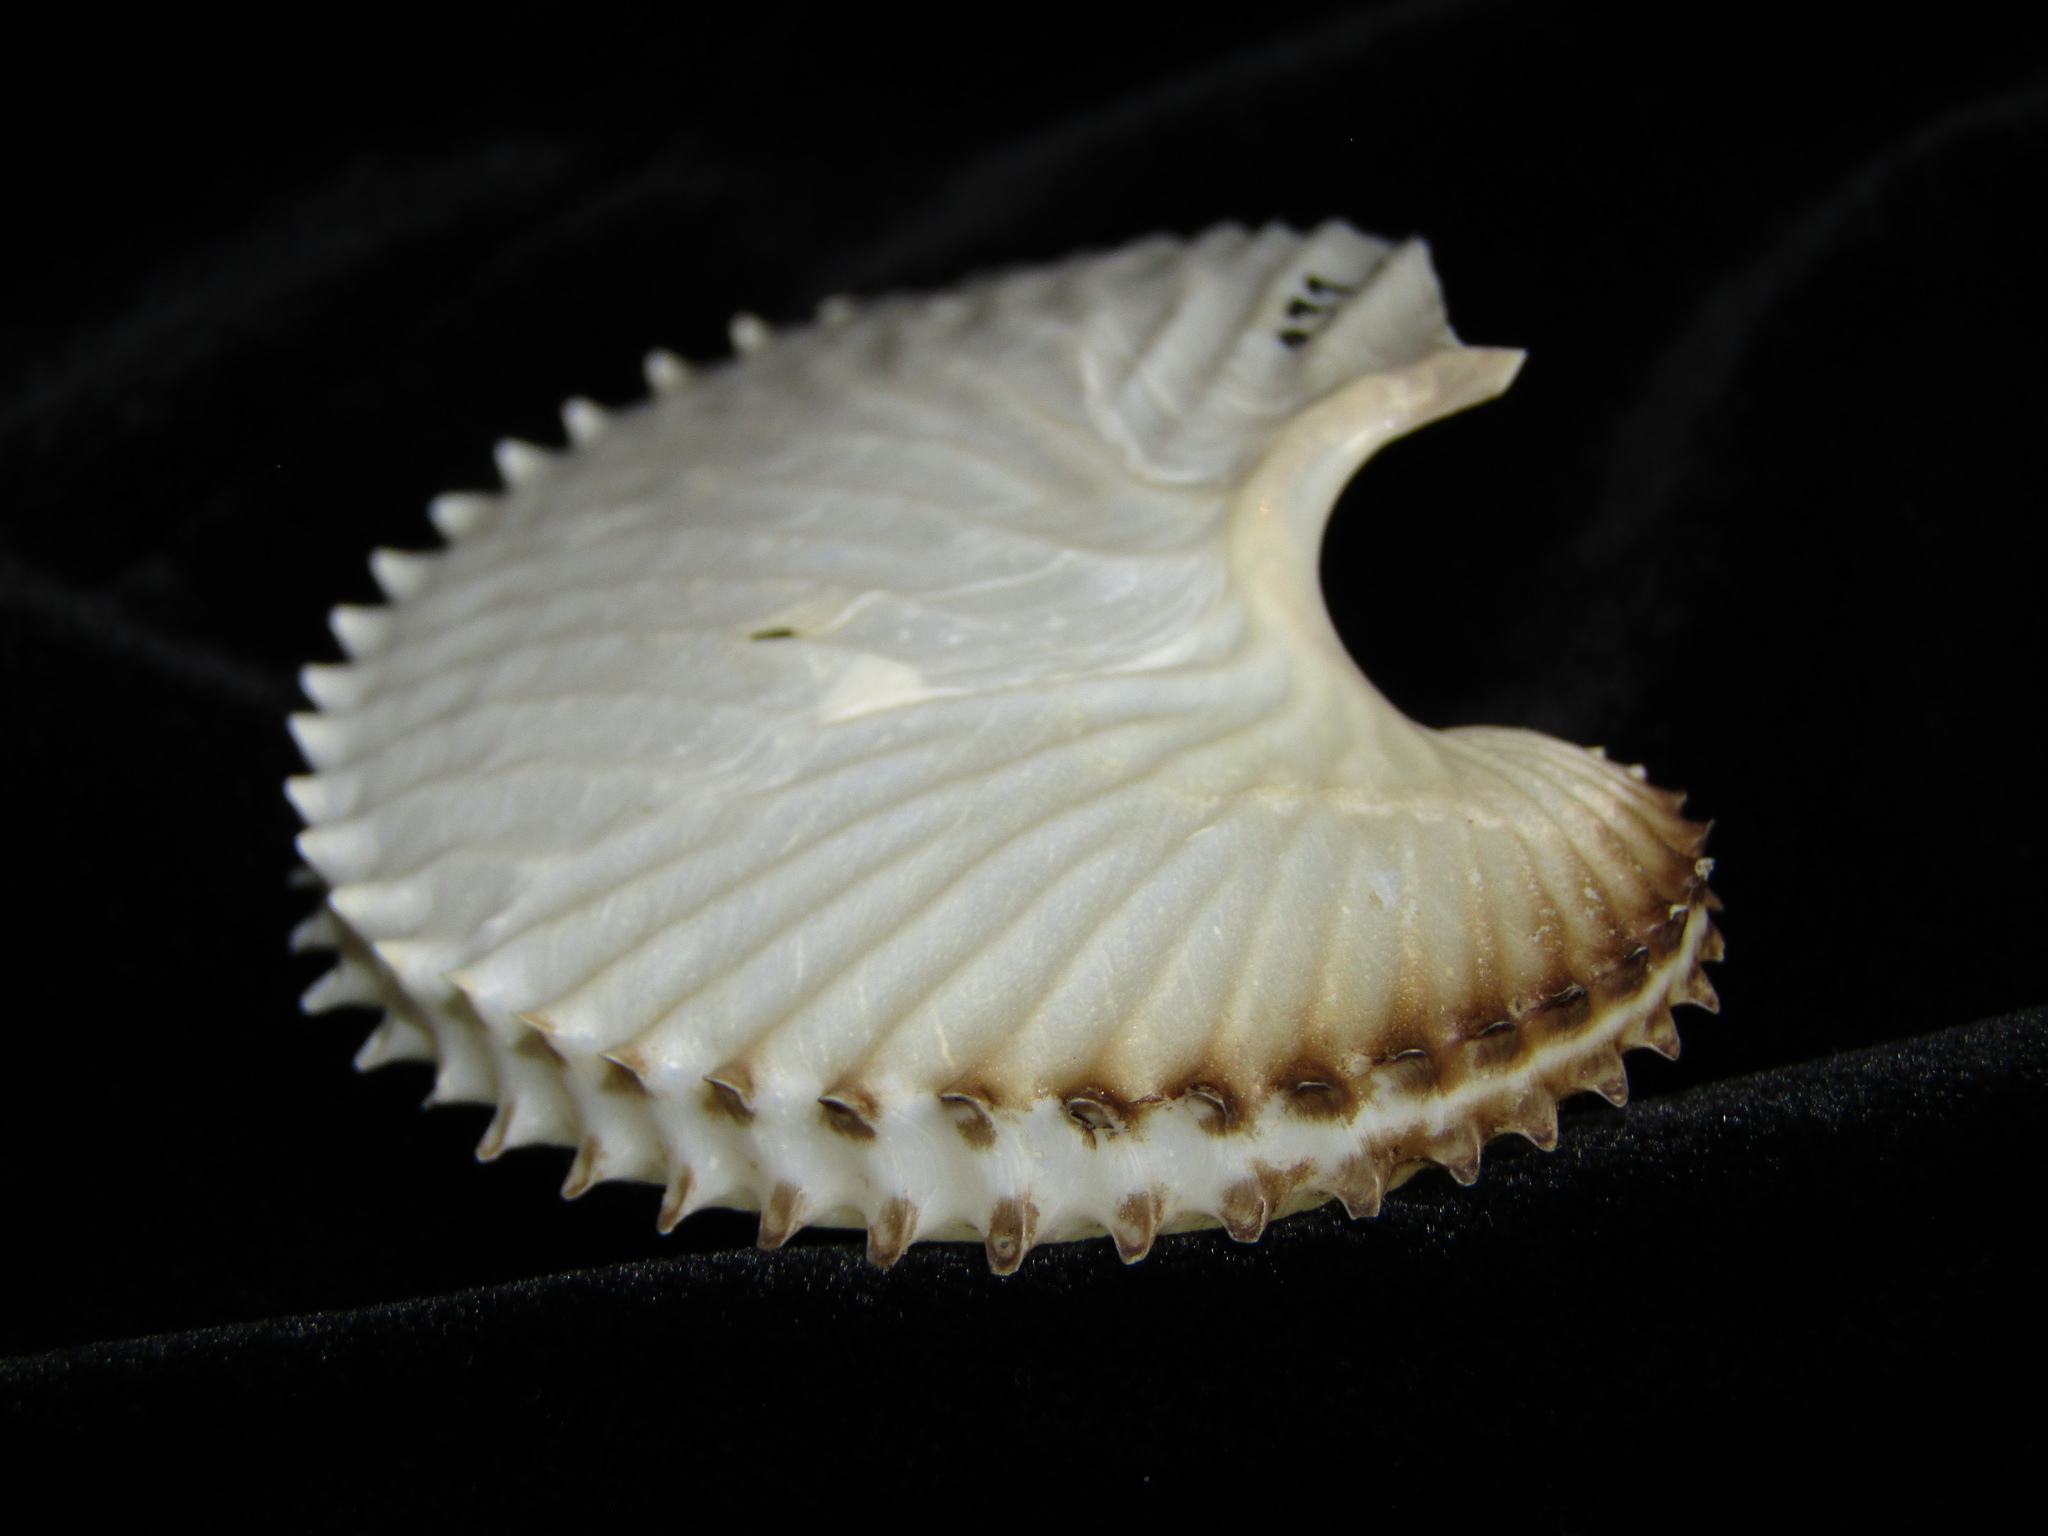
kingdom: Animalia
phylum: Mollusca
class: Cephalopoda
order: Octopoda
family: Argonautidae
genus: Argonauta
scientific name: Argonauta argo
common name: Common paper nautilus
